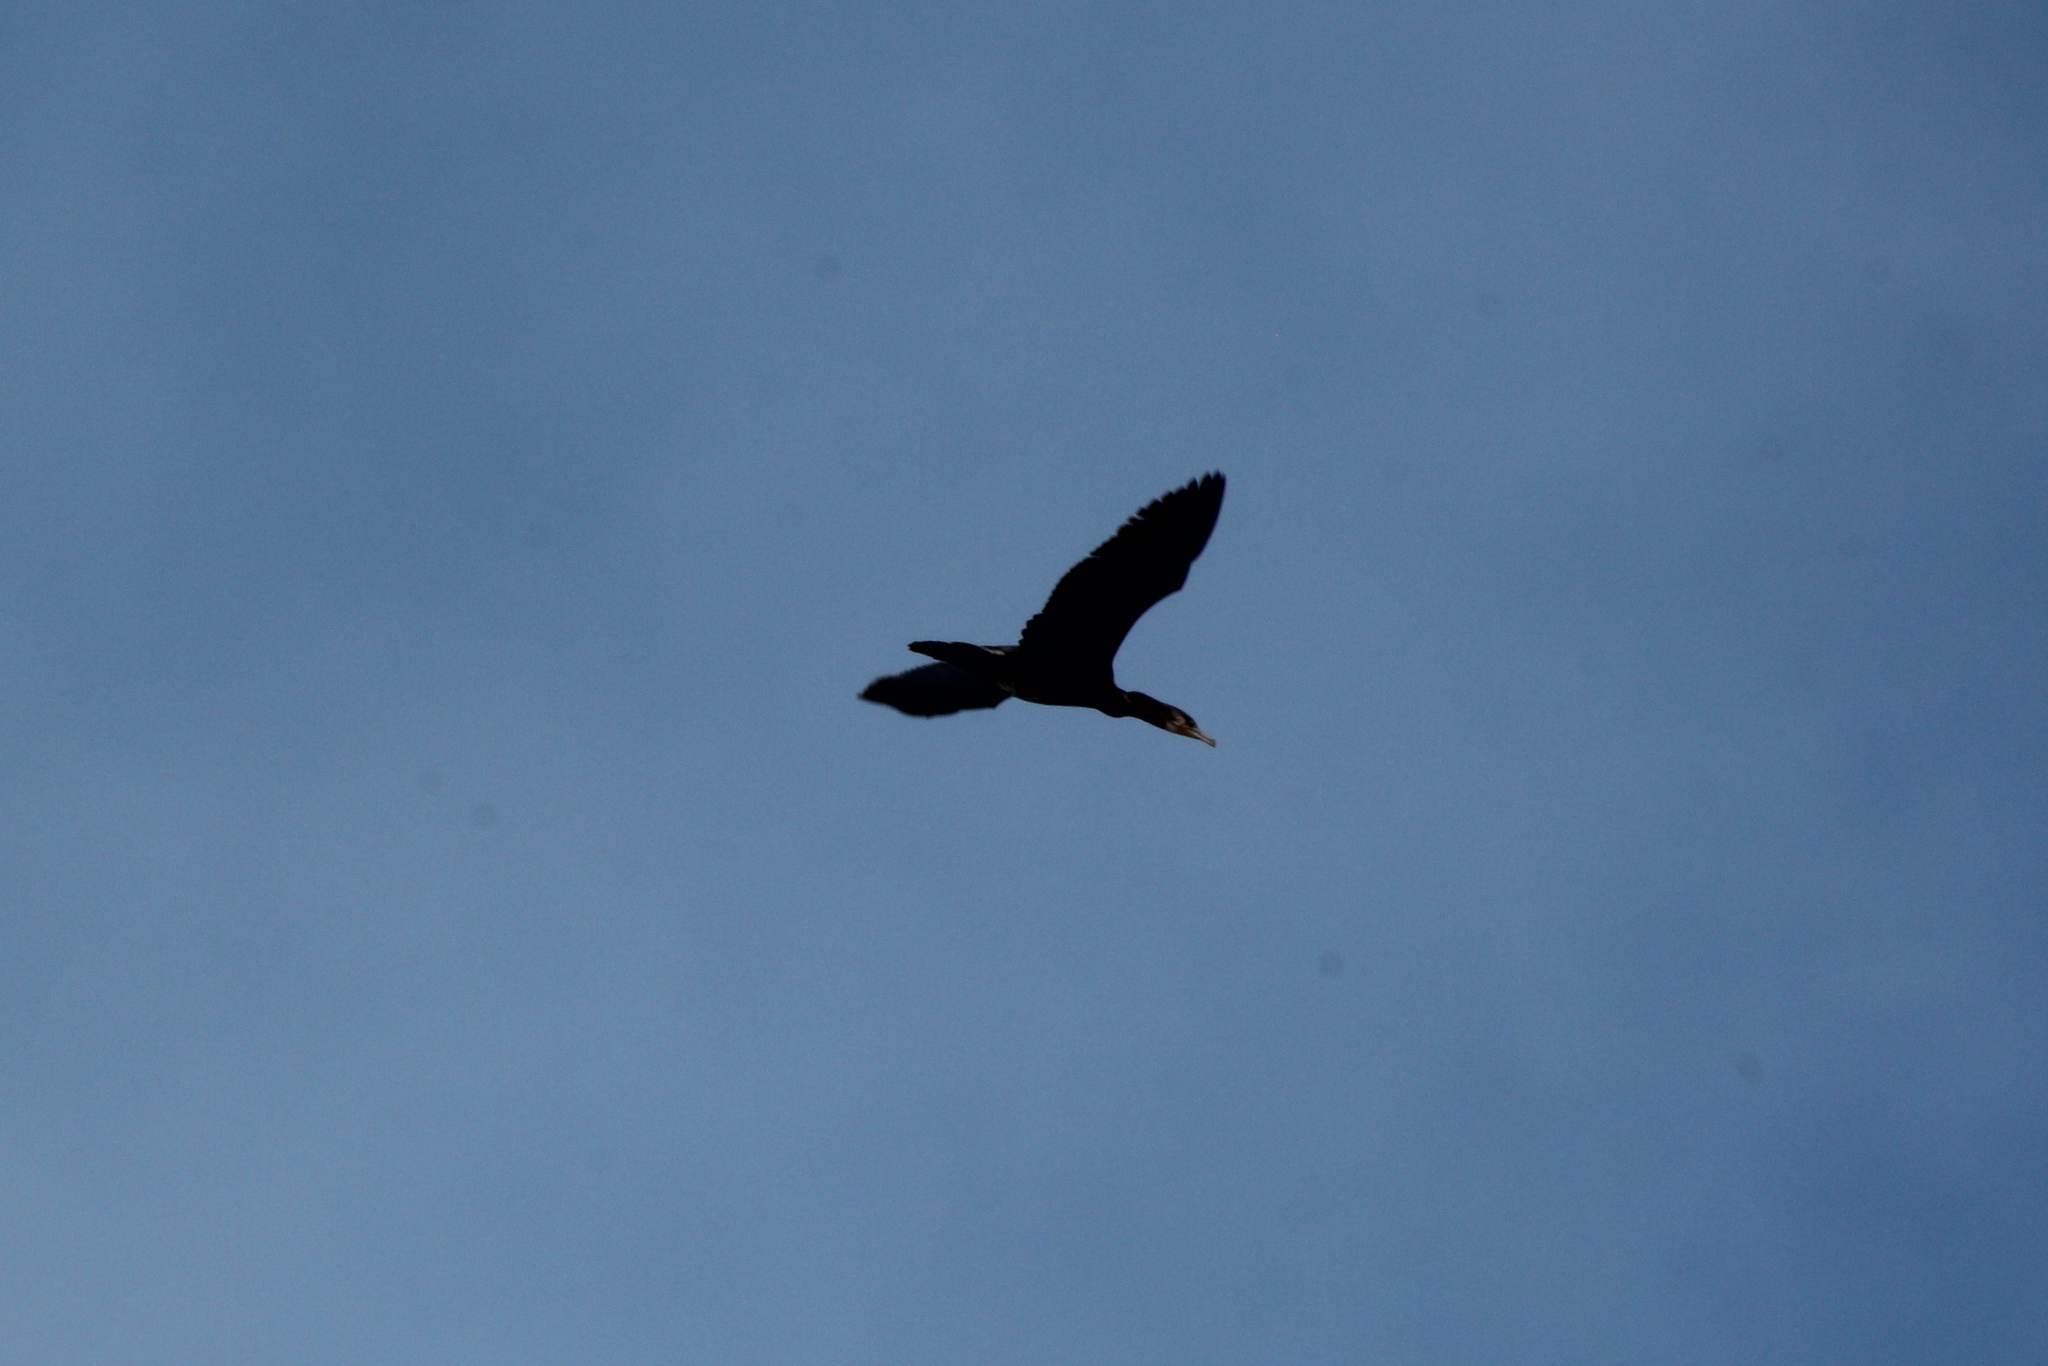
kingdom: Animalia
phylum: Chordata
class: Aves
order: Suliformes
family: Phalacrocoracidae
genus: Phalacrocorax
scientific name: Phalacrocorax carbo
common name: Great cormorant
